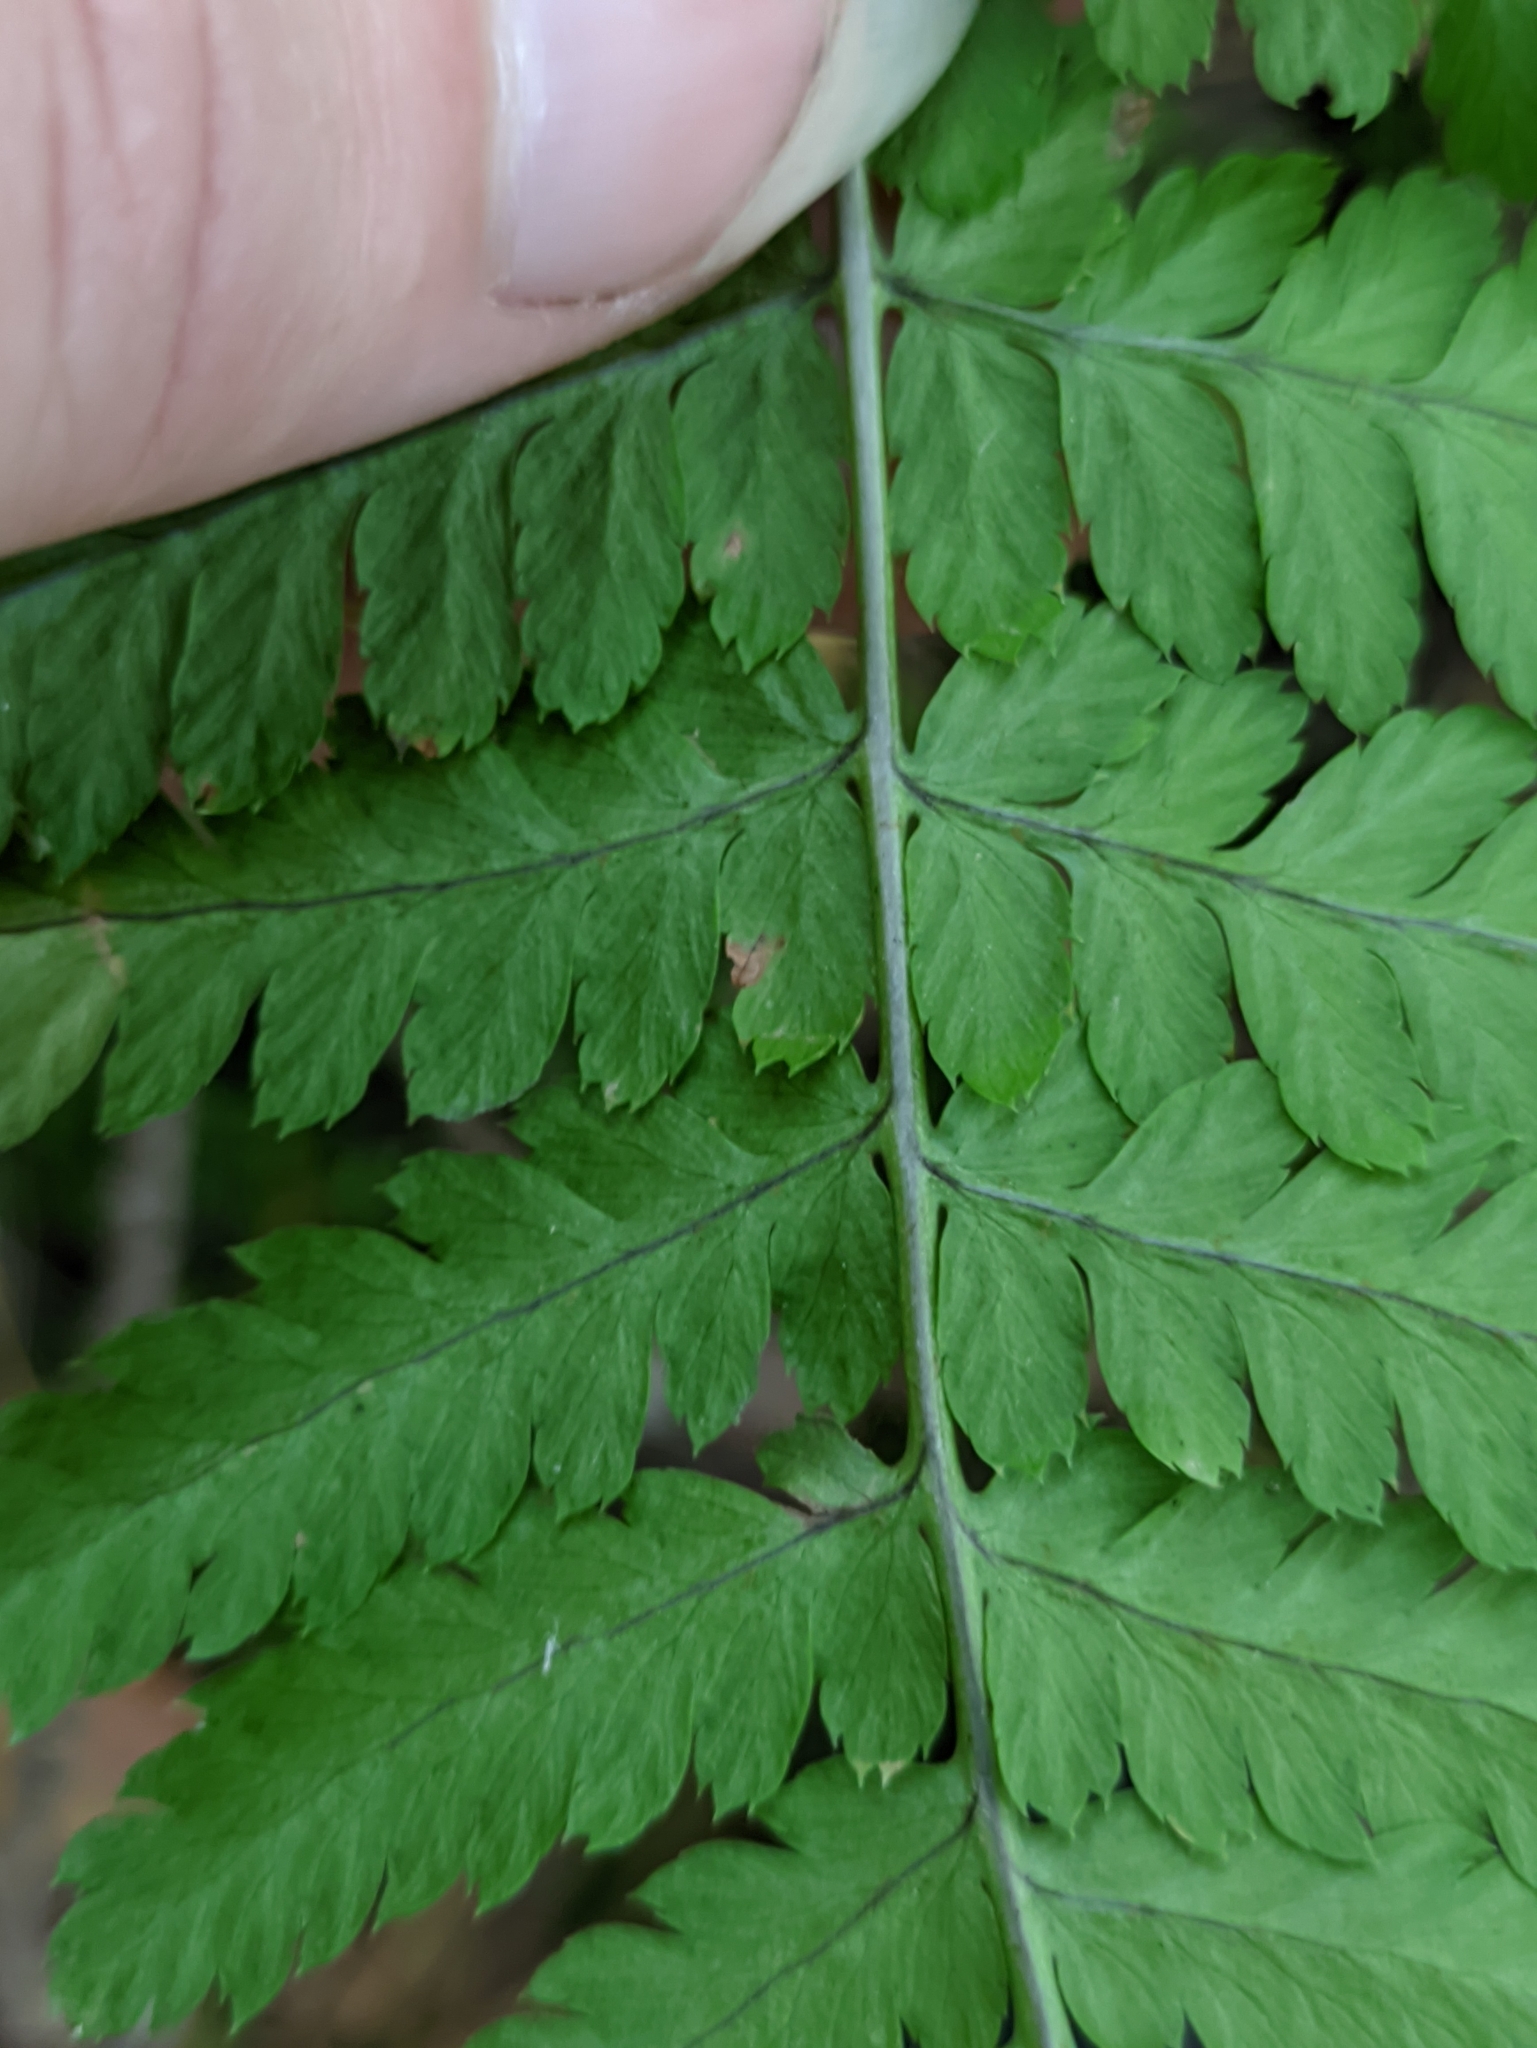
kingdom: Plantae
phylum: Tracheophyta
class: Polypodiopsida
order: Polypodiales
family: Dryopteridaceae
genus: Dryopteris
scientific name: Dryopteris carthusiana
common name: Narrow buckler-fern
